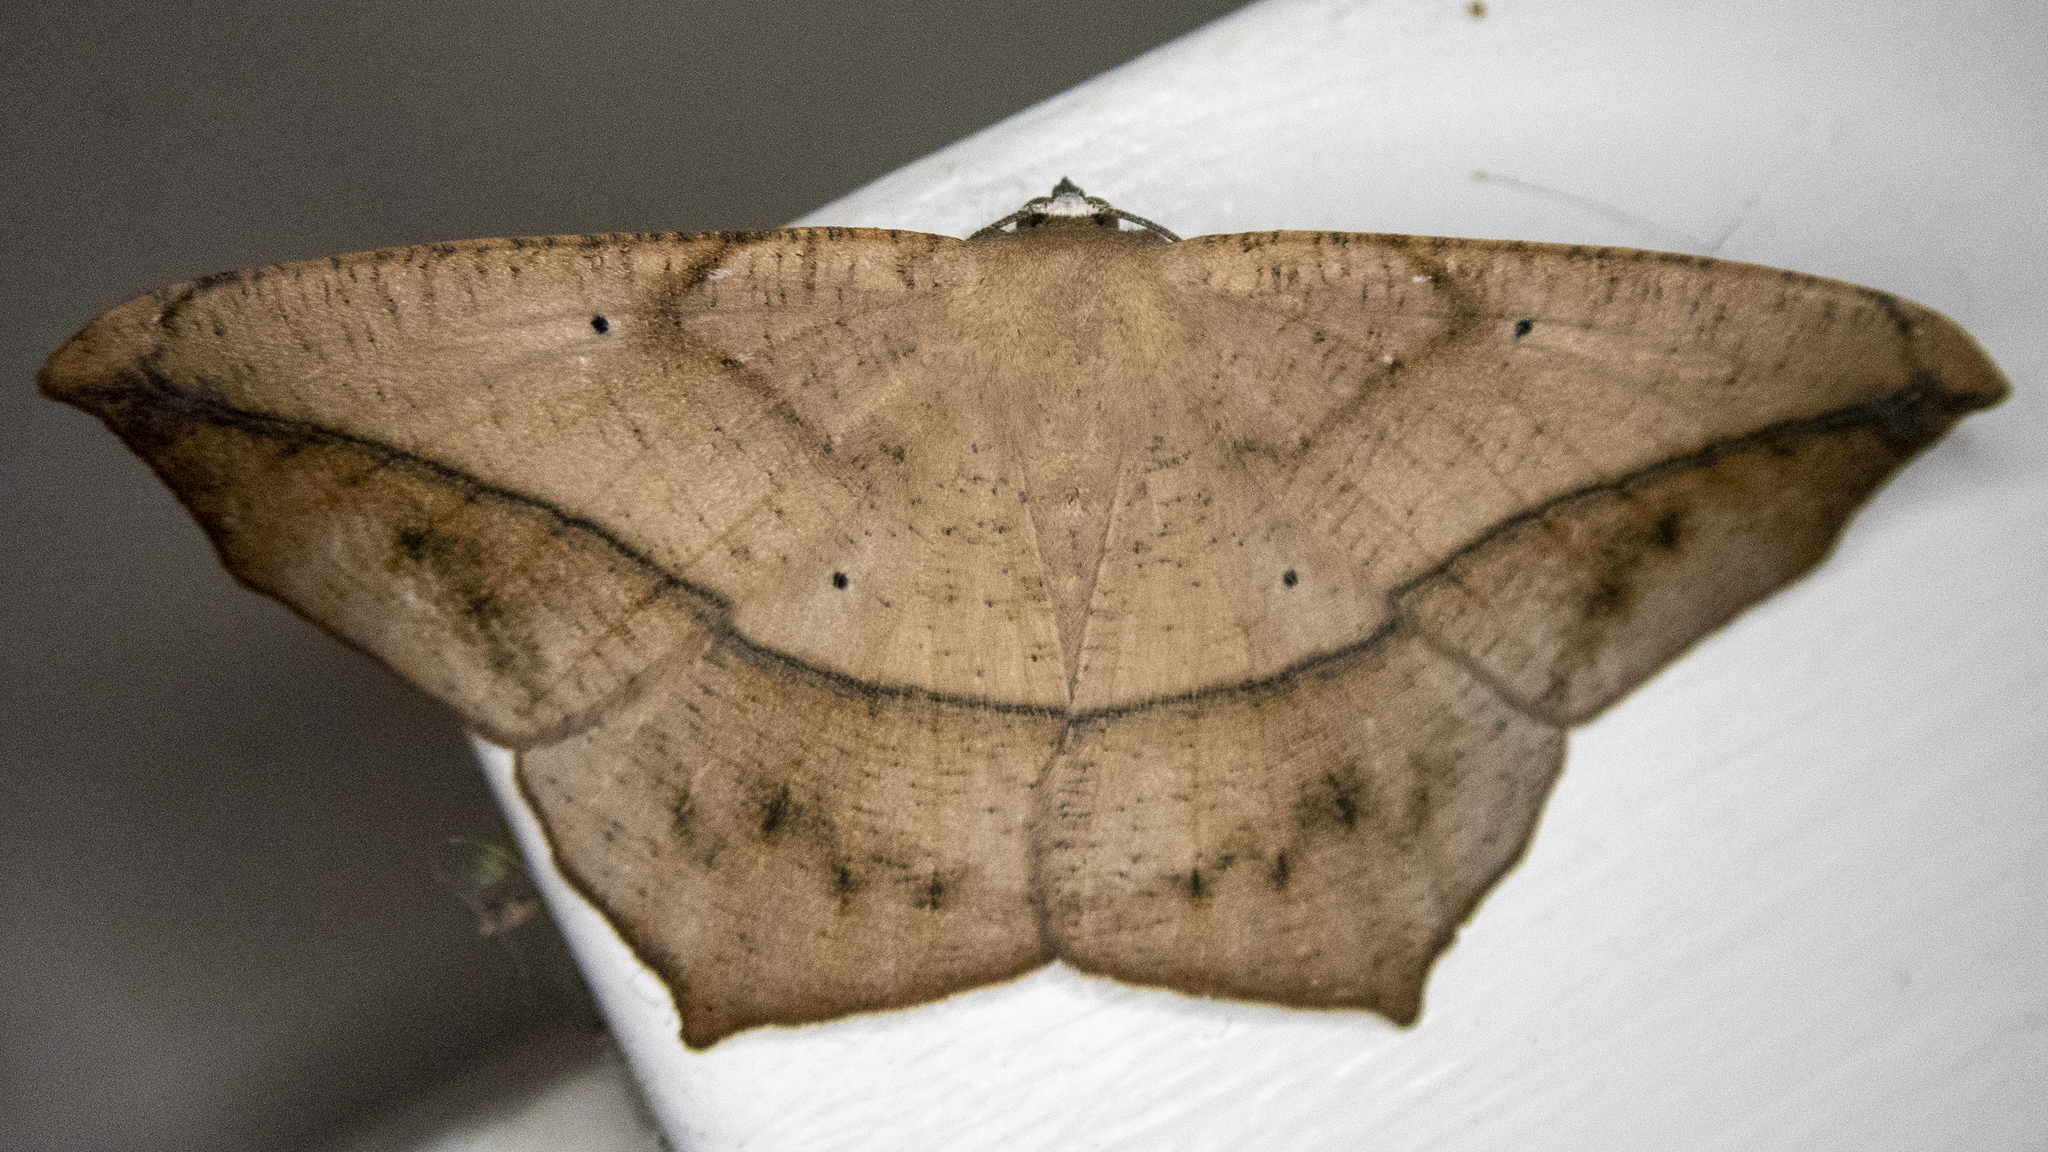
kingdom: Animalia
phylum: Arthropoda
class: Insecta
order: Lepidoptera
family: Geometridae
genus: Prochoerodes
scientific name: Prochoerodes lineola
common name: Large maple spanworm
